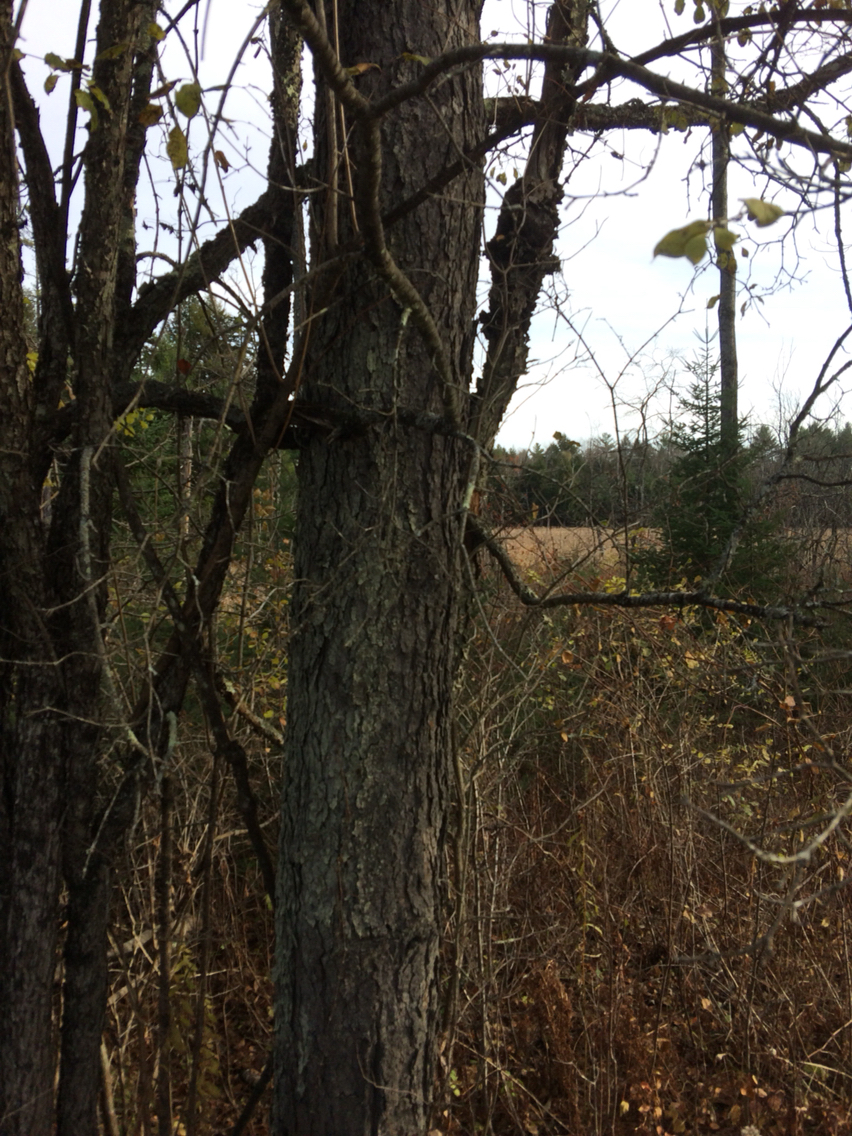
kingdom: Plantae
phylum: Tracheophyta
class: Magnoliopsida
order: Rosales
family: Rosaceae
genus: Prunus
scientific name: Prunus serotina
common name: Black cherry
